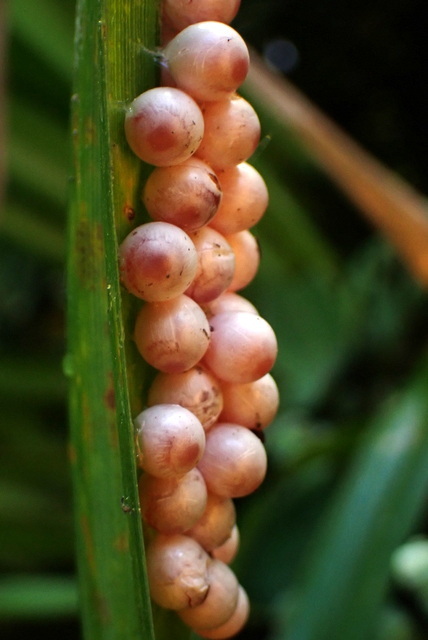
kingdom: Animalia
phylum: Mollusca
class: Gastropoda
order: Architaenioglossa
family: Ampullariidae
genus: Pomacea
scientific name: Pomacea paludosa
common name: Florida applesnail
